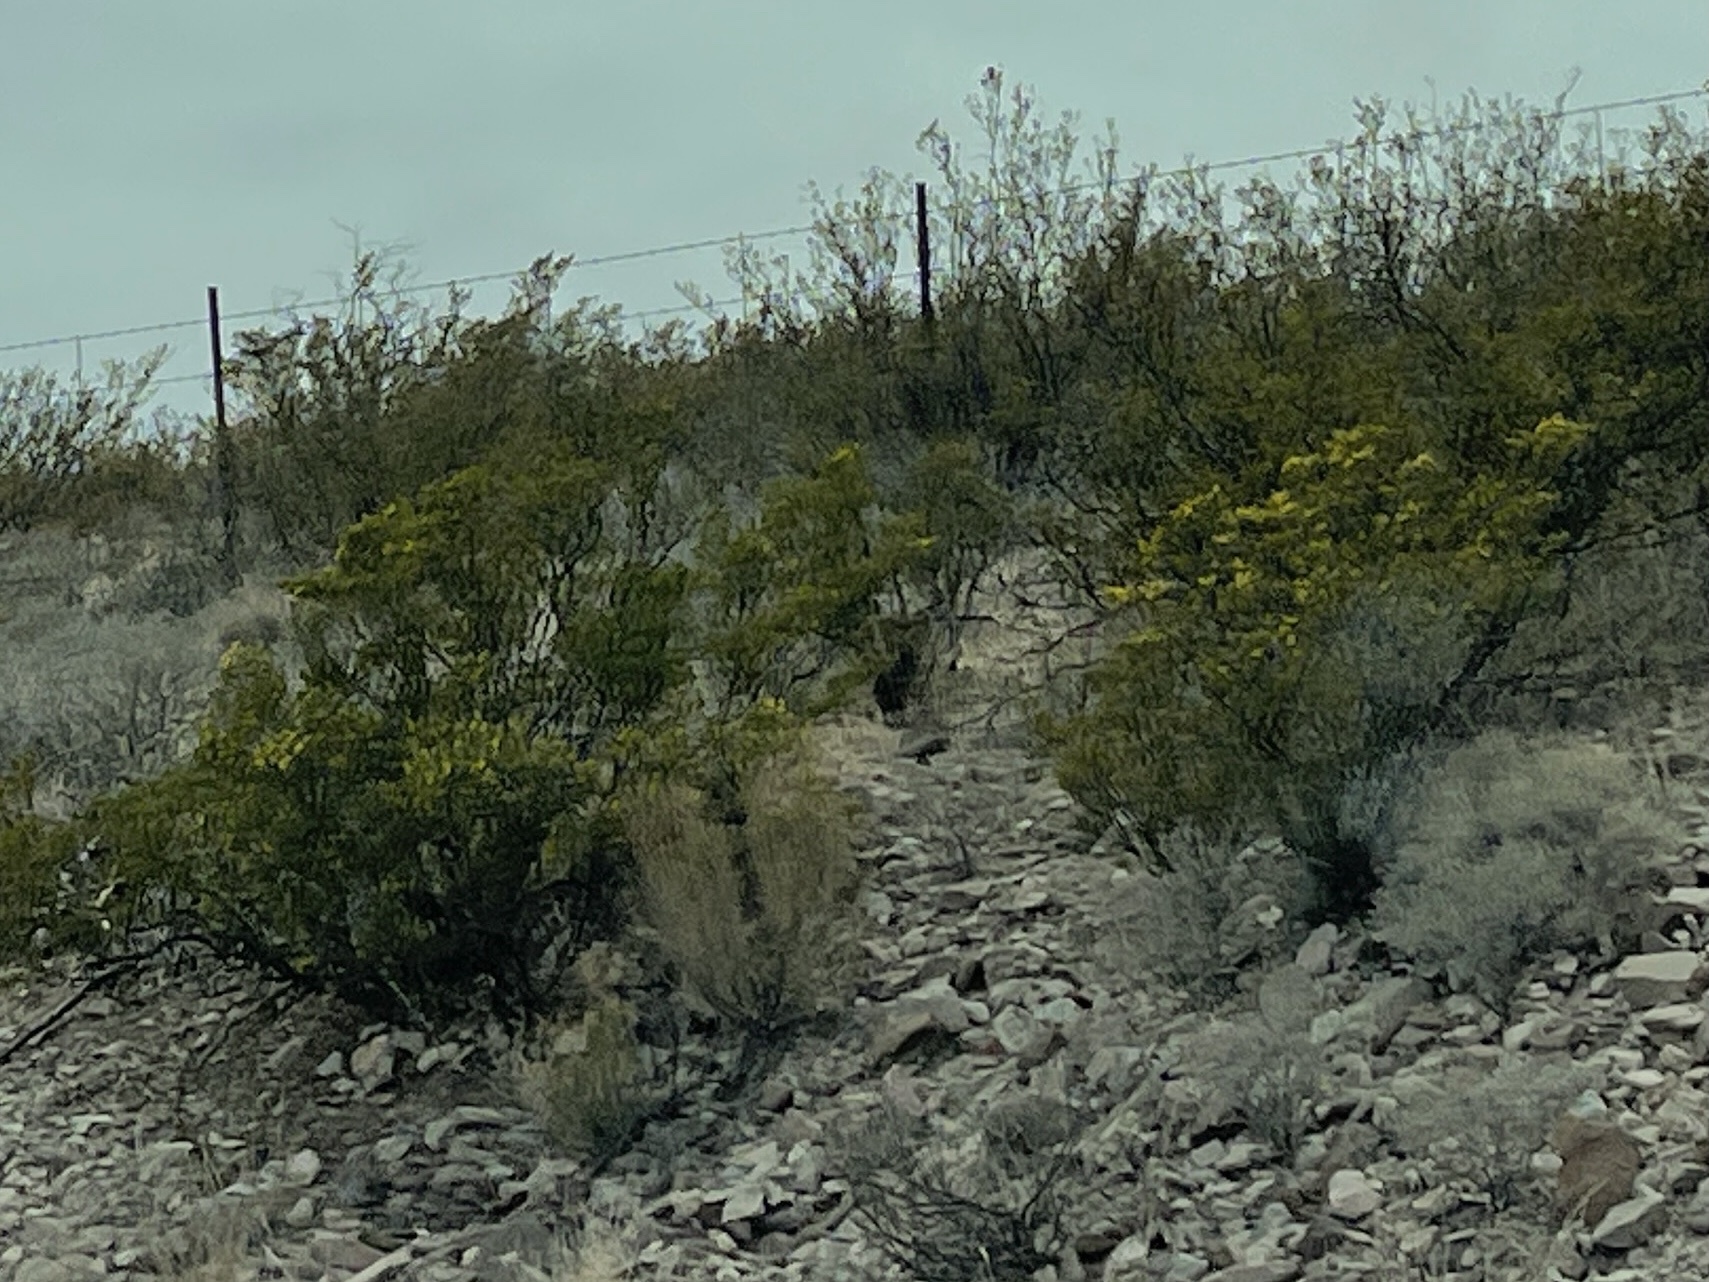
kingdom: Plantae
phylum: Tracheophyta
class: Magnoliopsida
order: Zygophyllales
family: Zygophyllaceae
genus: Larrea
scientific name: Larrea tridentata
